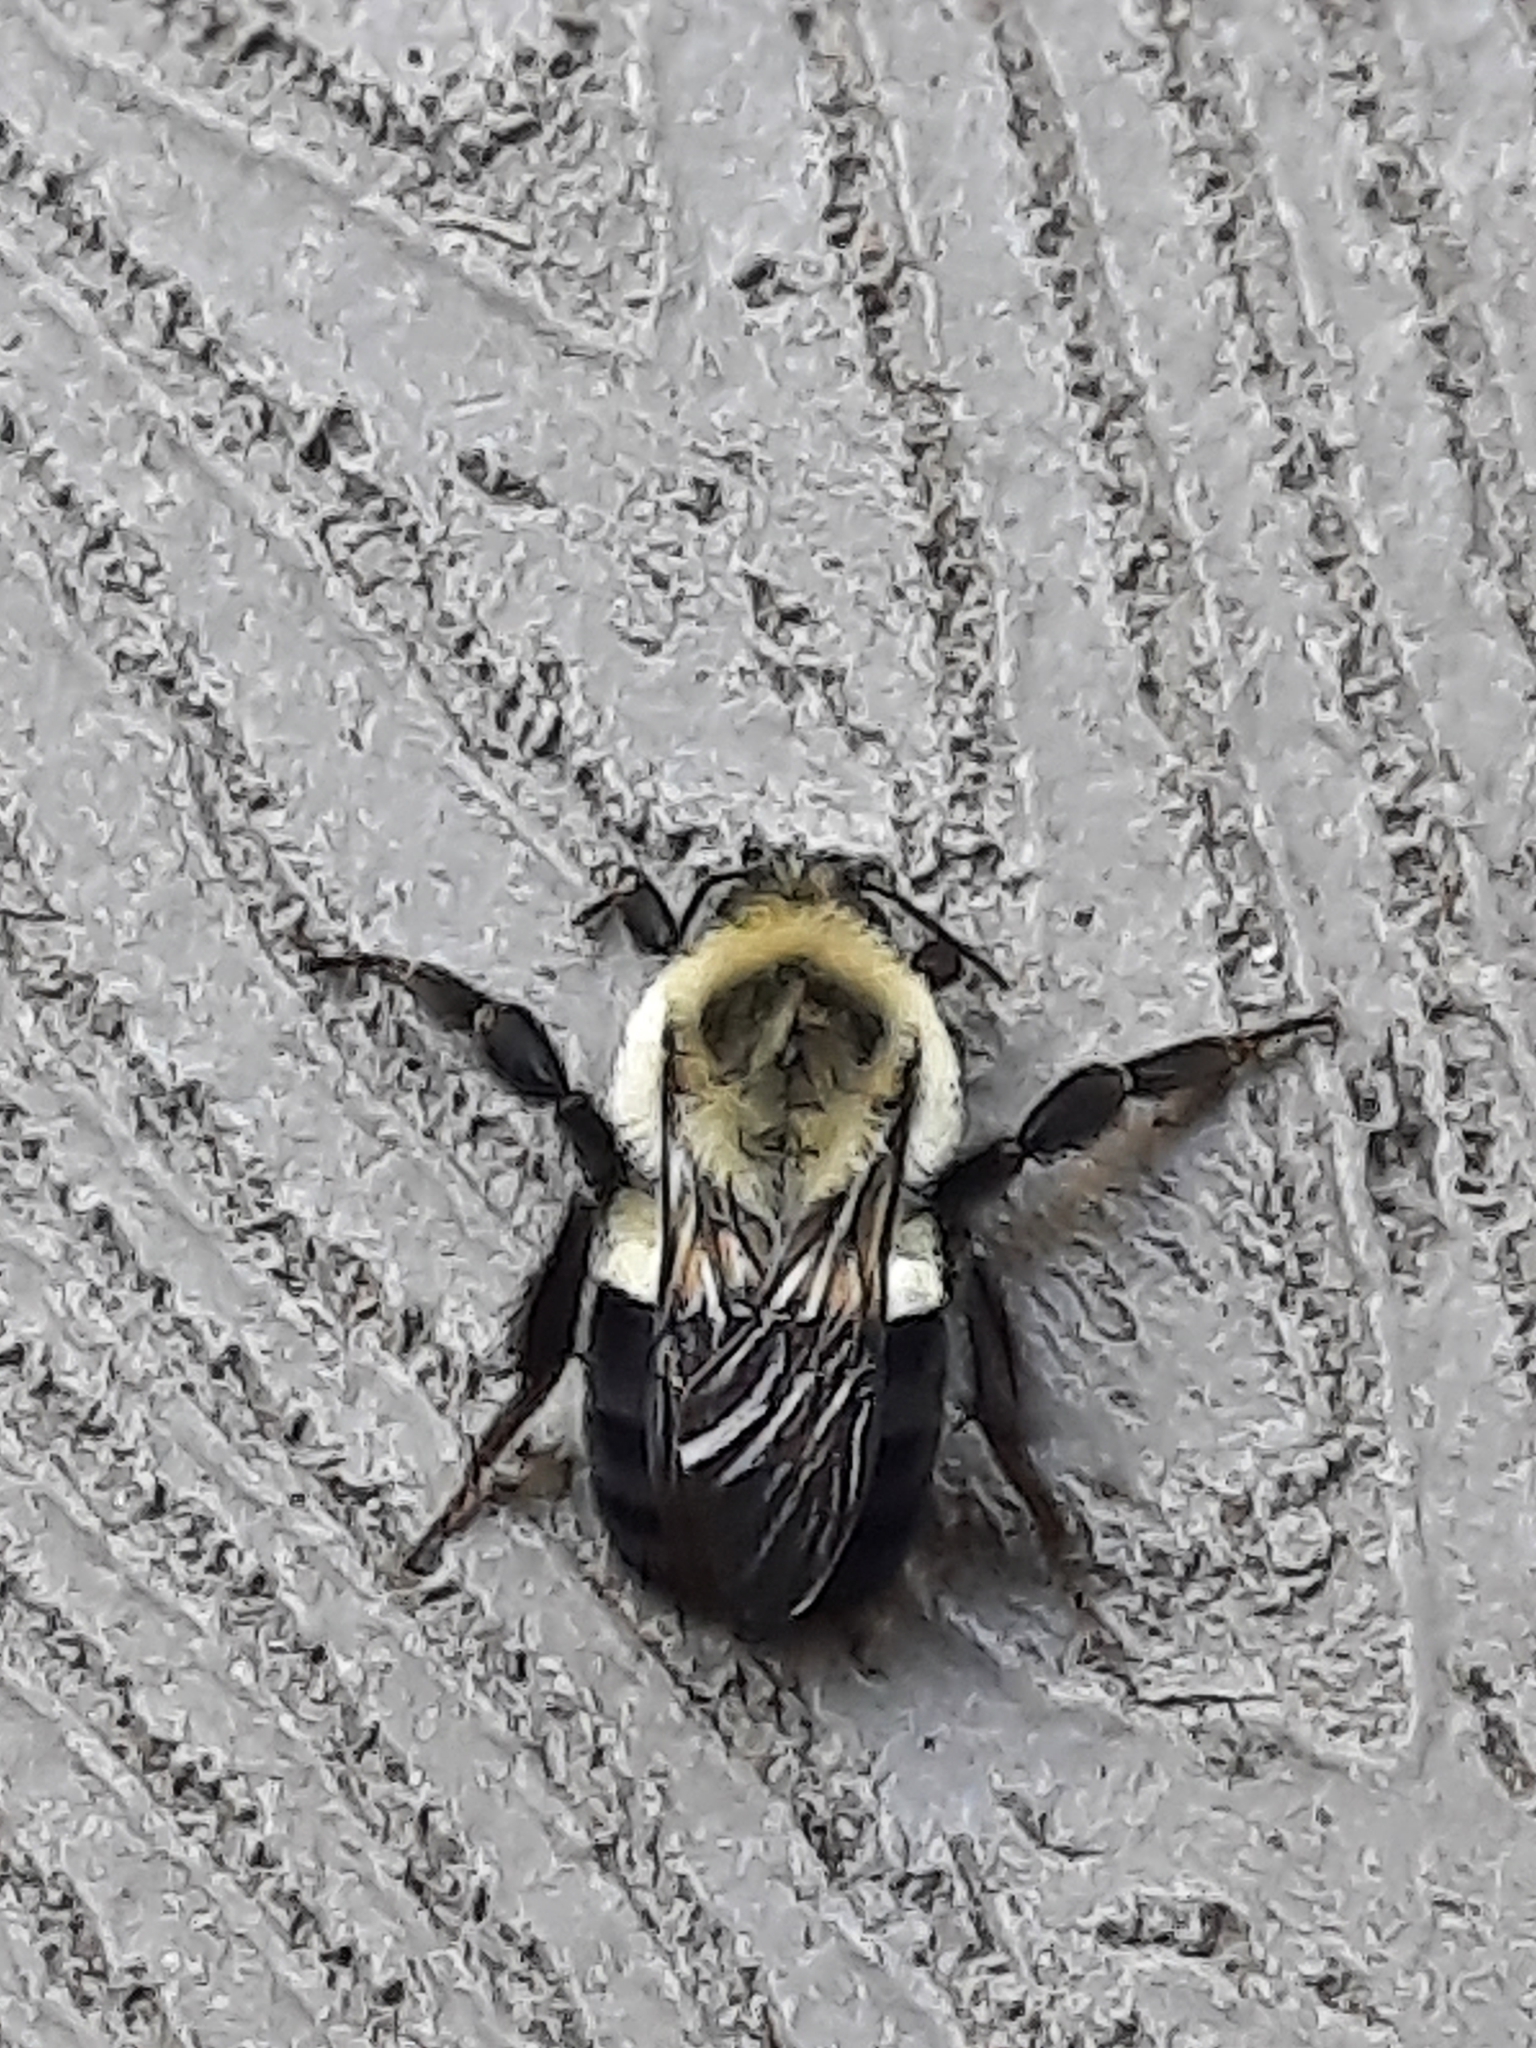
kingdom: Animalia
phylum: Arthropoda
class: Insecta
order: Hymenoptera
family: Apidae
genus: Bombus
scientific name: Bombus impatiens
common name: Common eastern bumble bee
